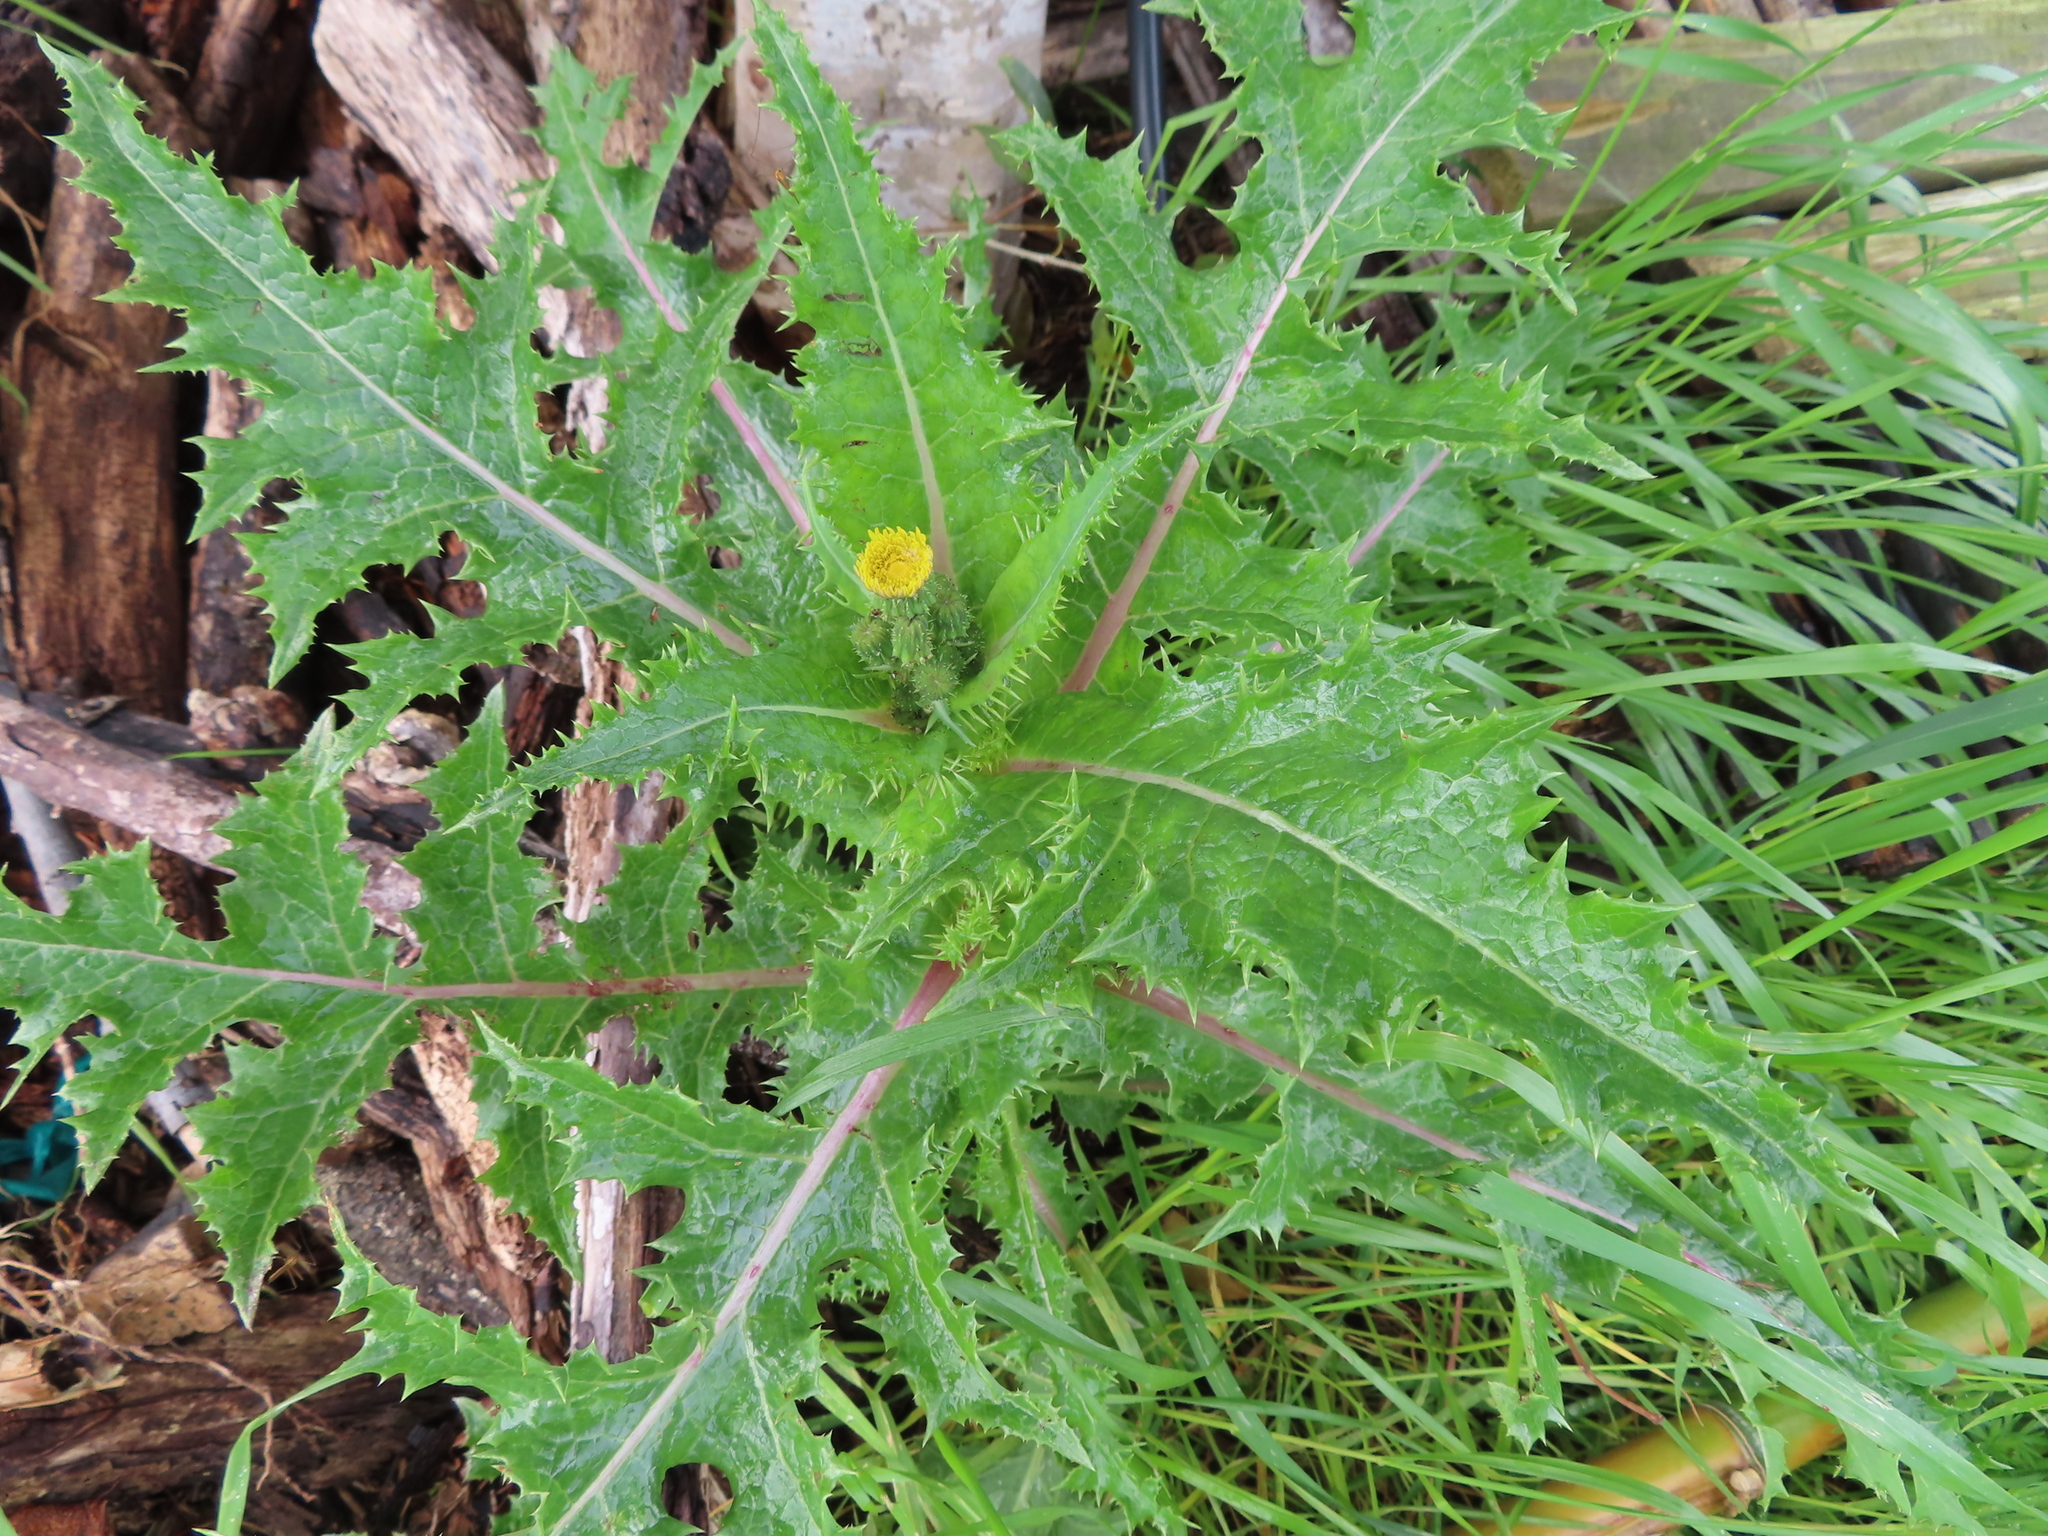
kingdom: Plantae
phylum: Tracheophyta
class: Magnoliopsida
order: Asterales
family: Asteraceae
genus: Sonchus
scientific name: Sonchus asper
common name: Prickly sow-thistle
